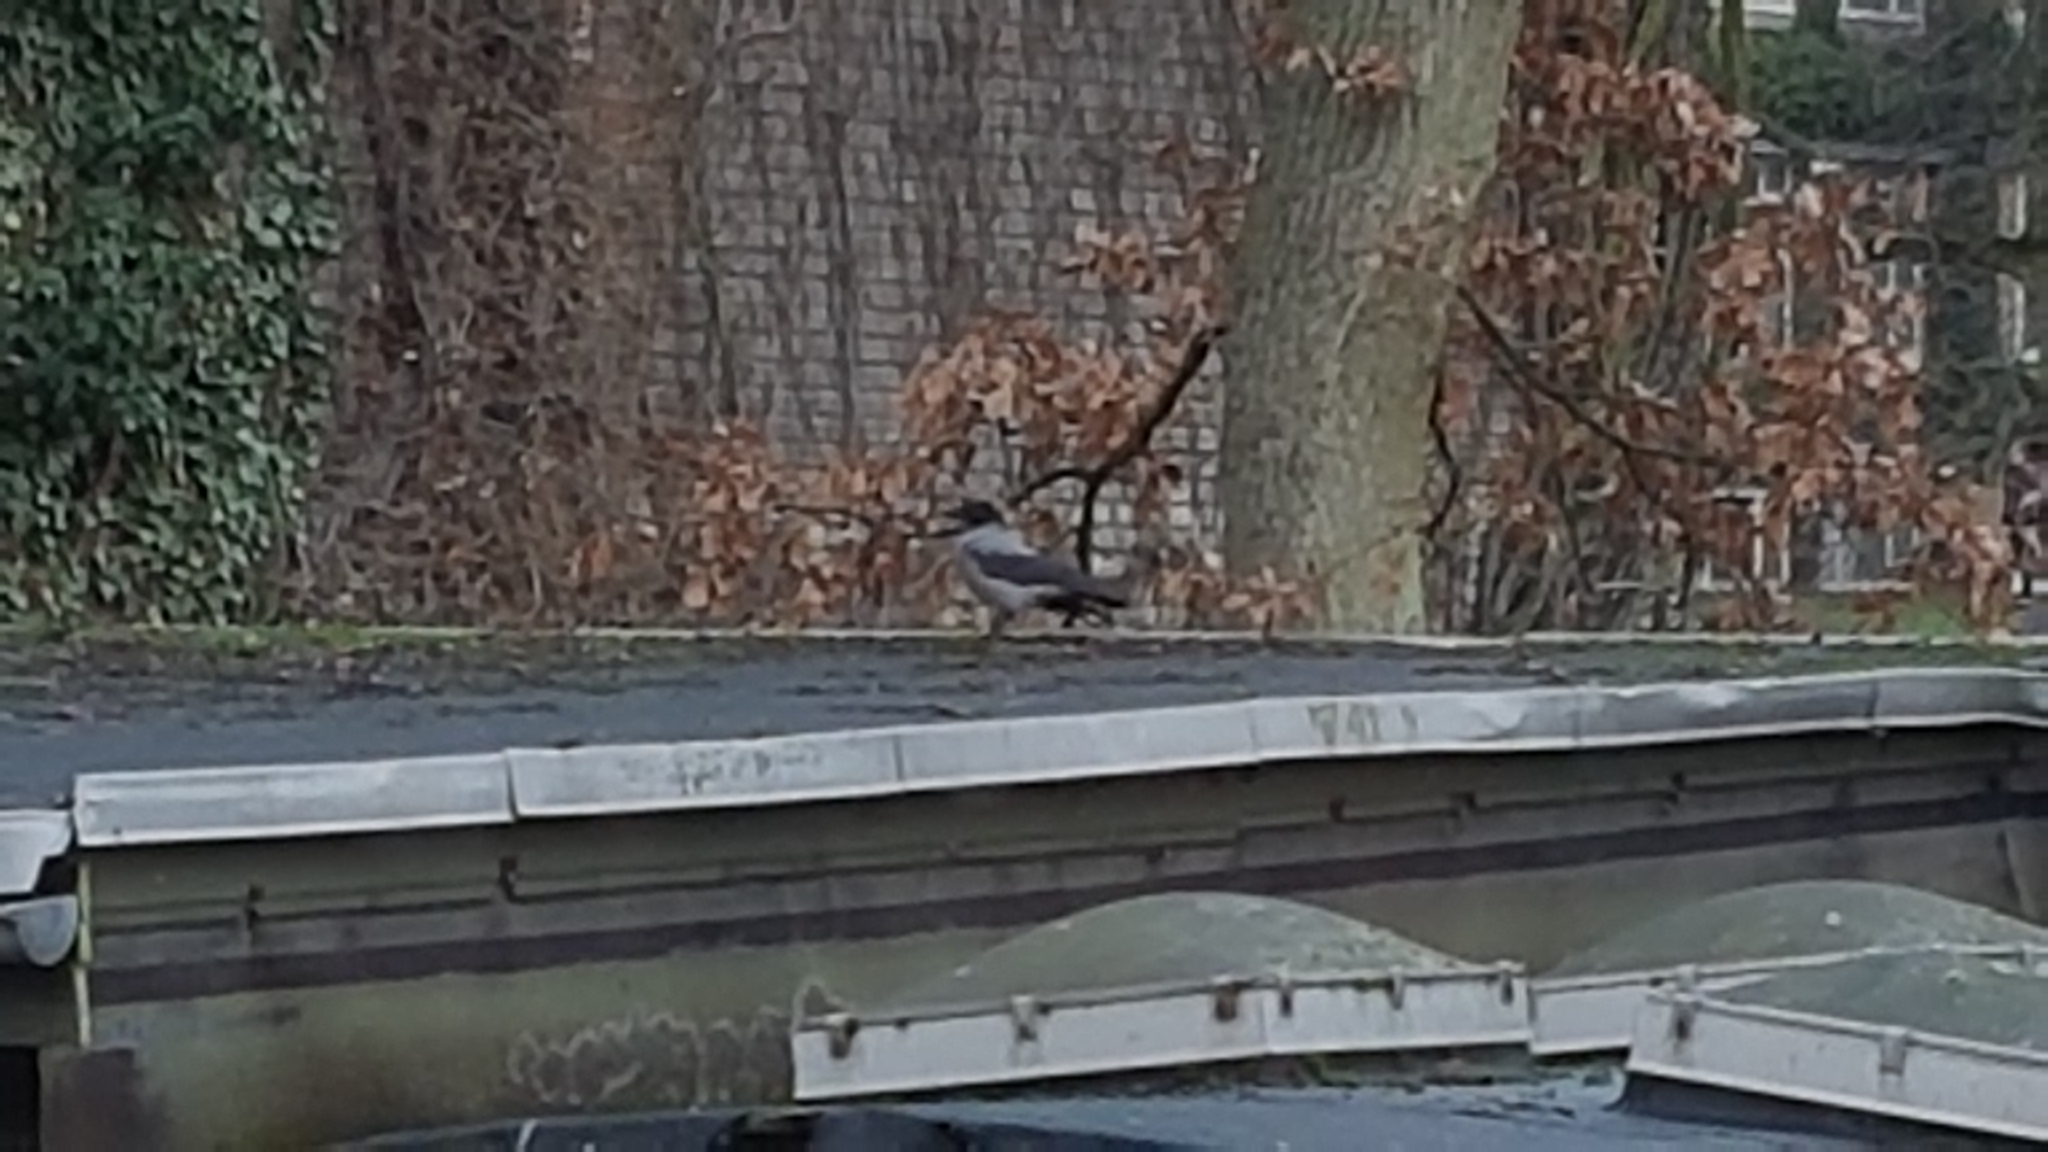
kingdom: Animalia
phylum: Chordata
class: Aves
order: Passeriformes
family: Corvidae
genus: Corvus
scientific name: Corvus cornix
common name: Hooded crow
